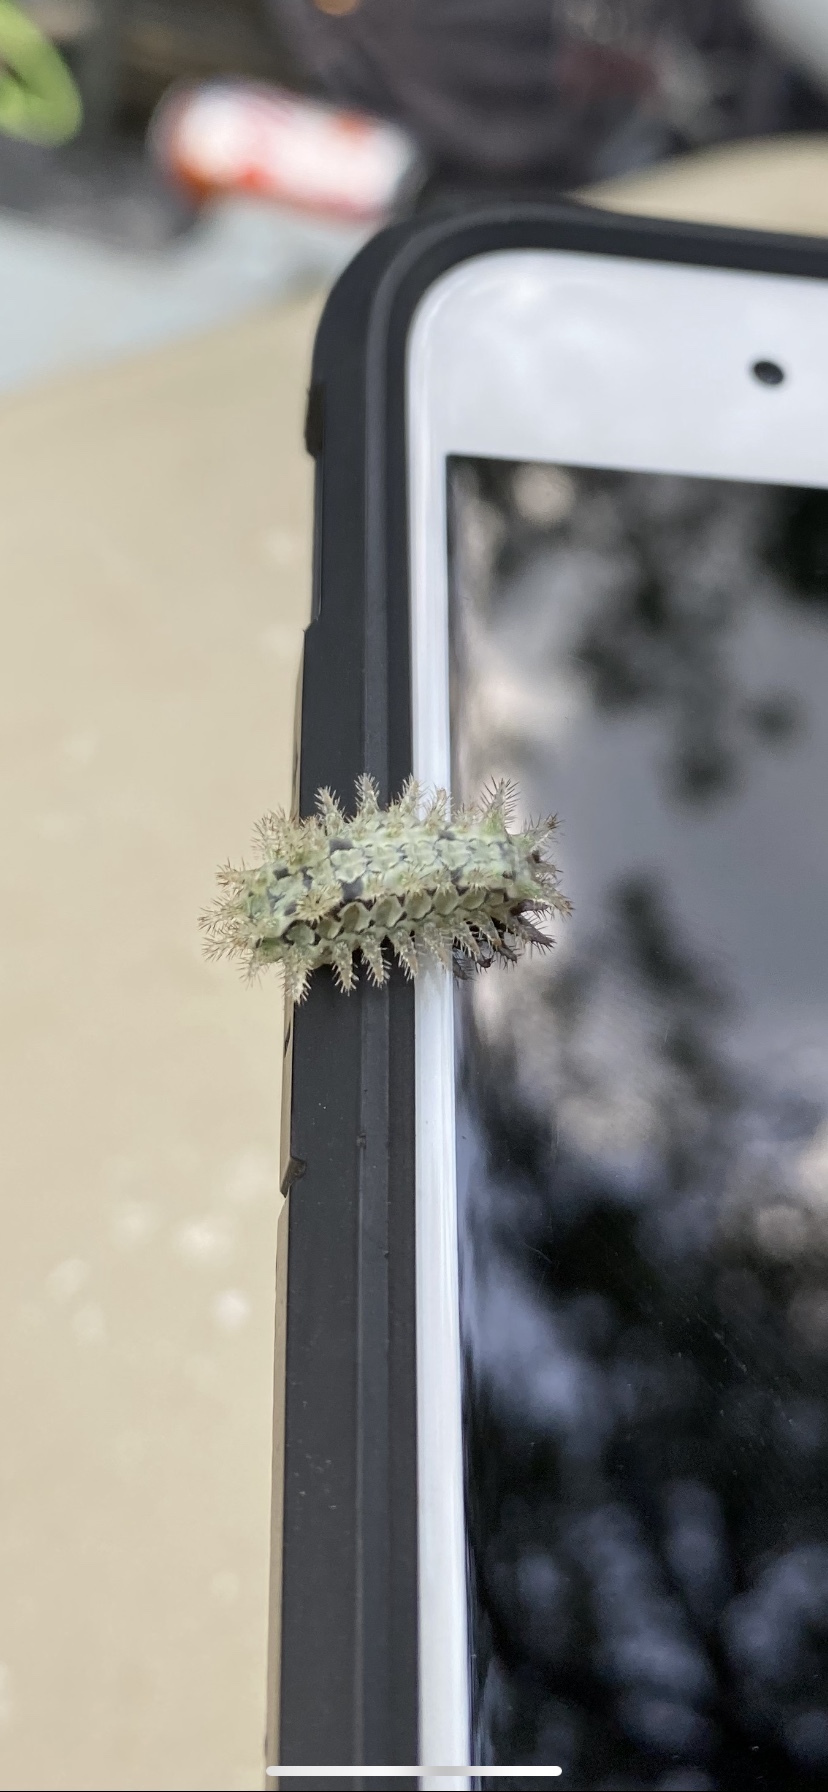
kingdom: Animalia
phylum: Arthropoda
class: Insecta
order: Lepidoptera
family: Limacodidae
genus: Euclea
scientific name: Euclea delphinii
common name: Spiny oak-slug moth
